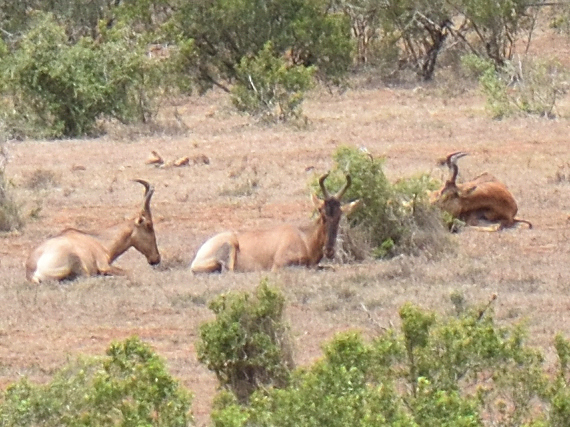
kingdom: Animalia
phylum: Chordata
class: Mammalia
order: Artiodactyla
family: Bovidae
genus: Alcelaphus
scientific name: Alcelaphus caama
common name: Red hartebeest
